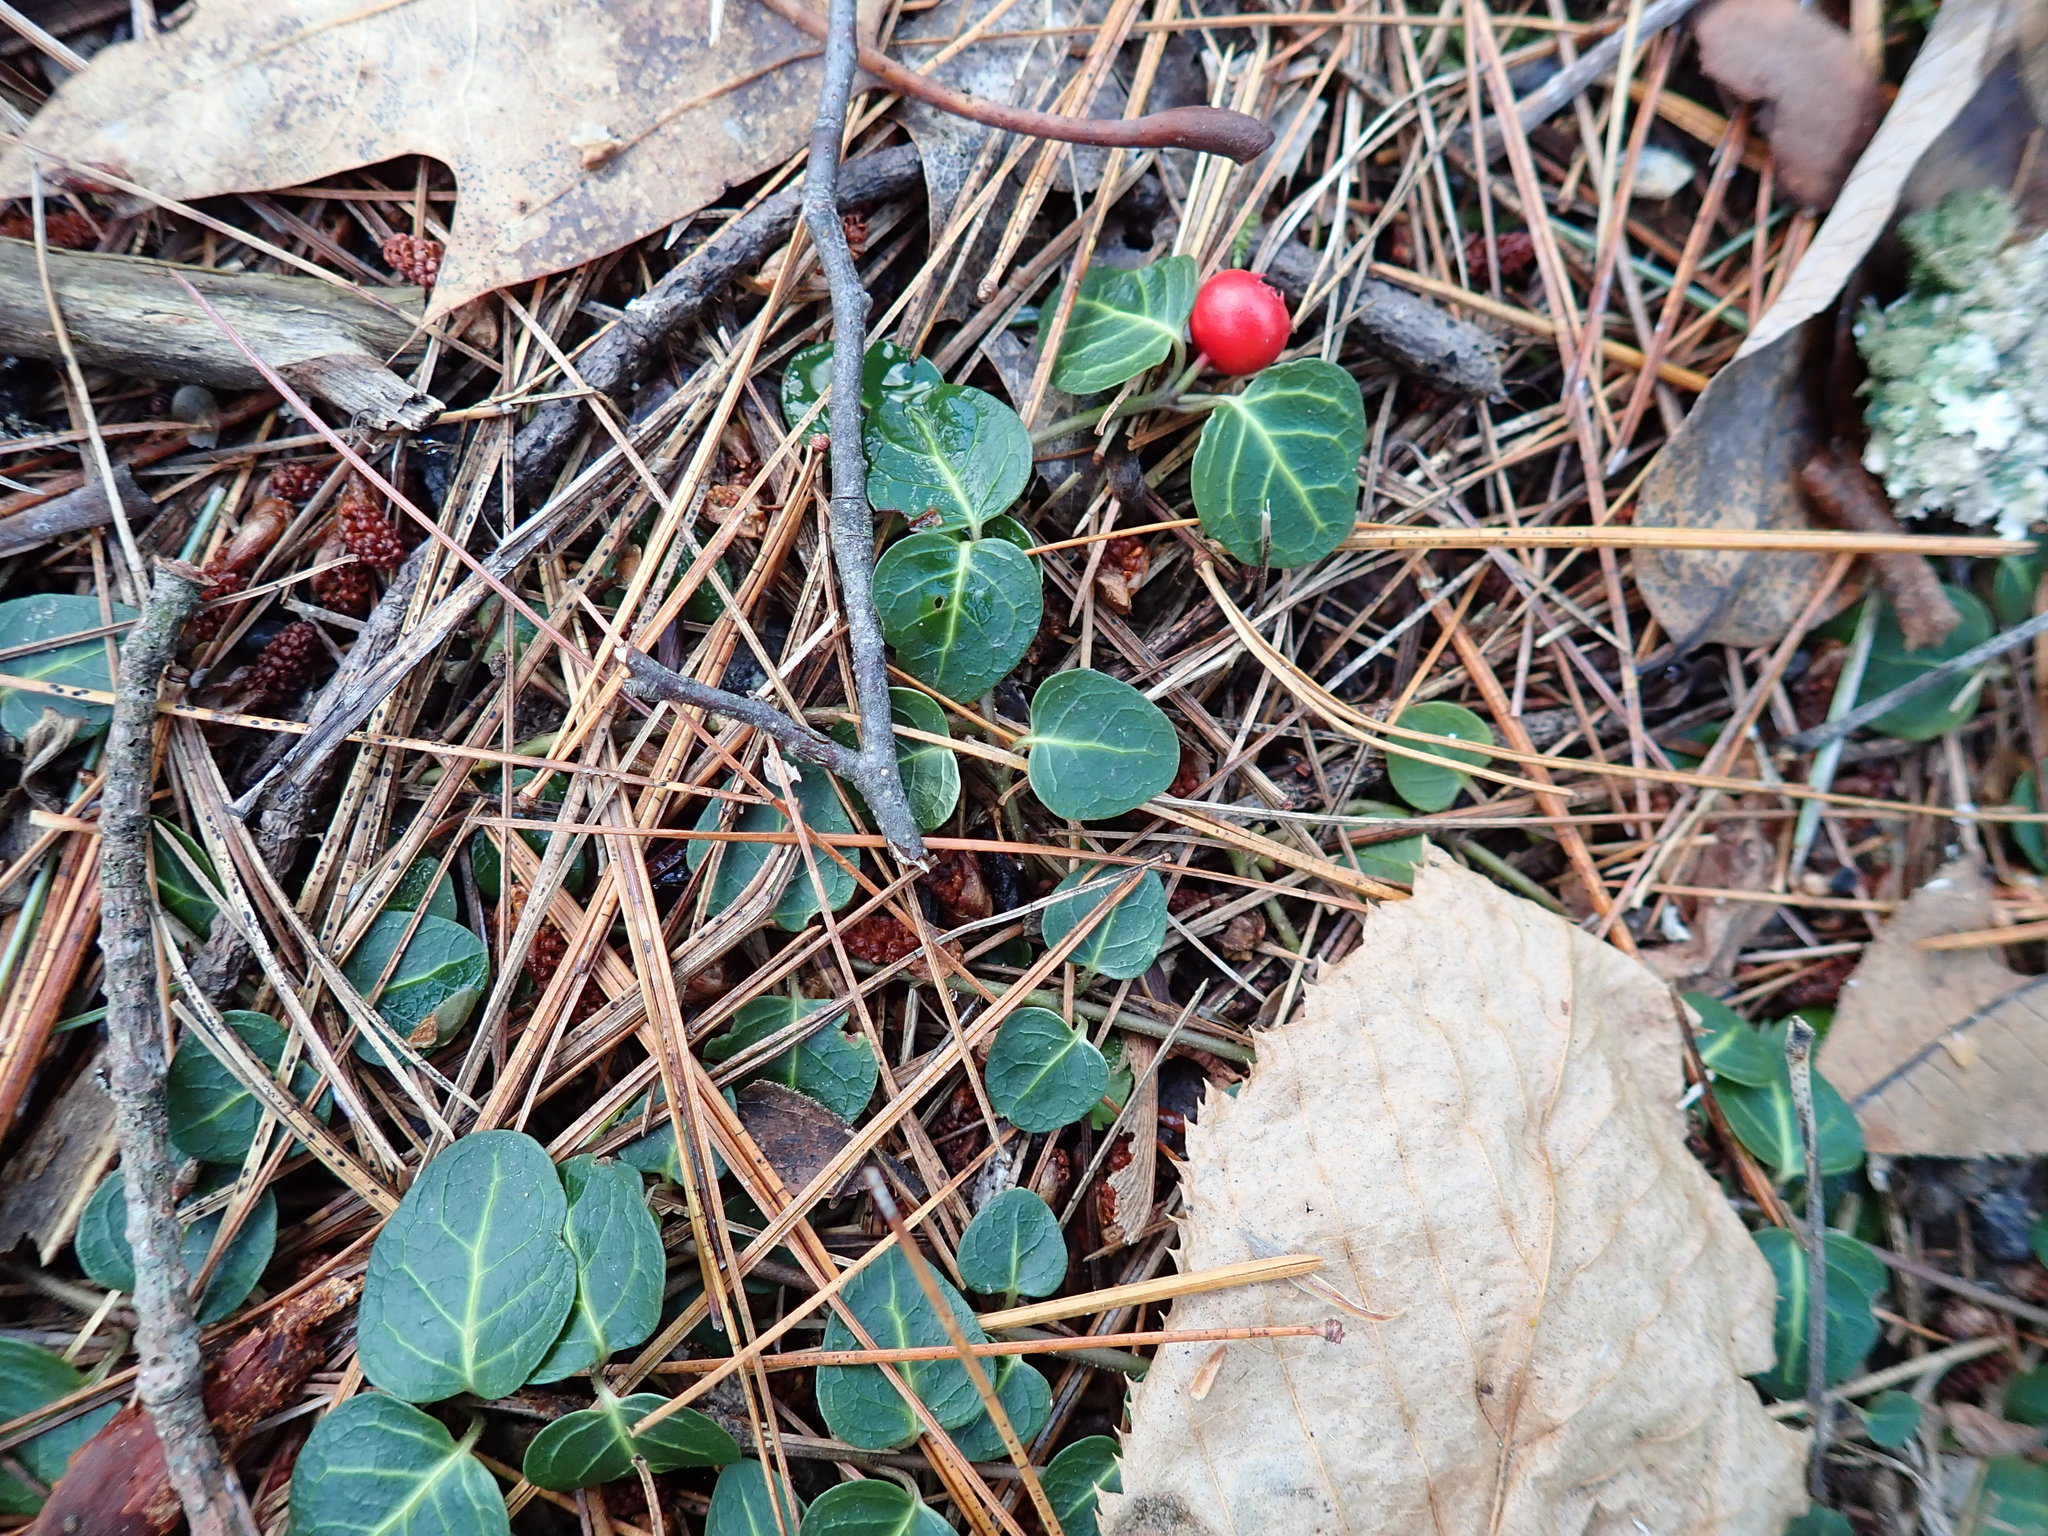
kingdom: Plantae
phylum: Tracheophyta
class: Magnoliopsida
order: Gentianales
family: Rubiaceae
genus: Mitchella
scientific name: Mitchella repens
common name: Partridge-berry
